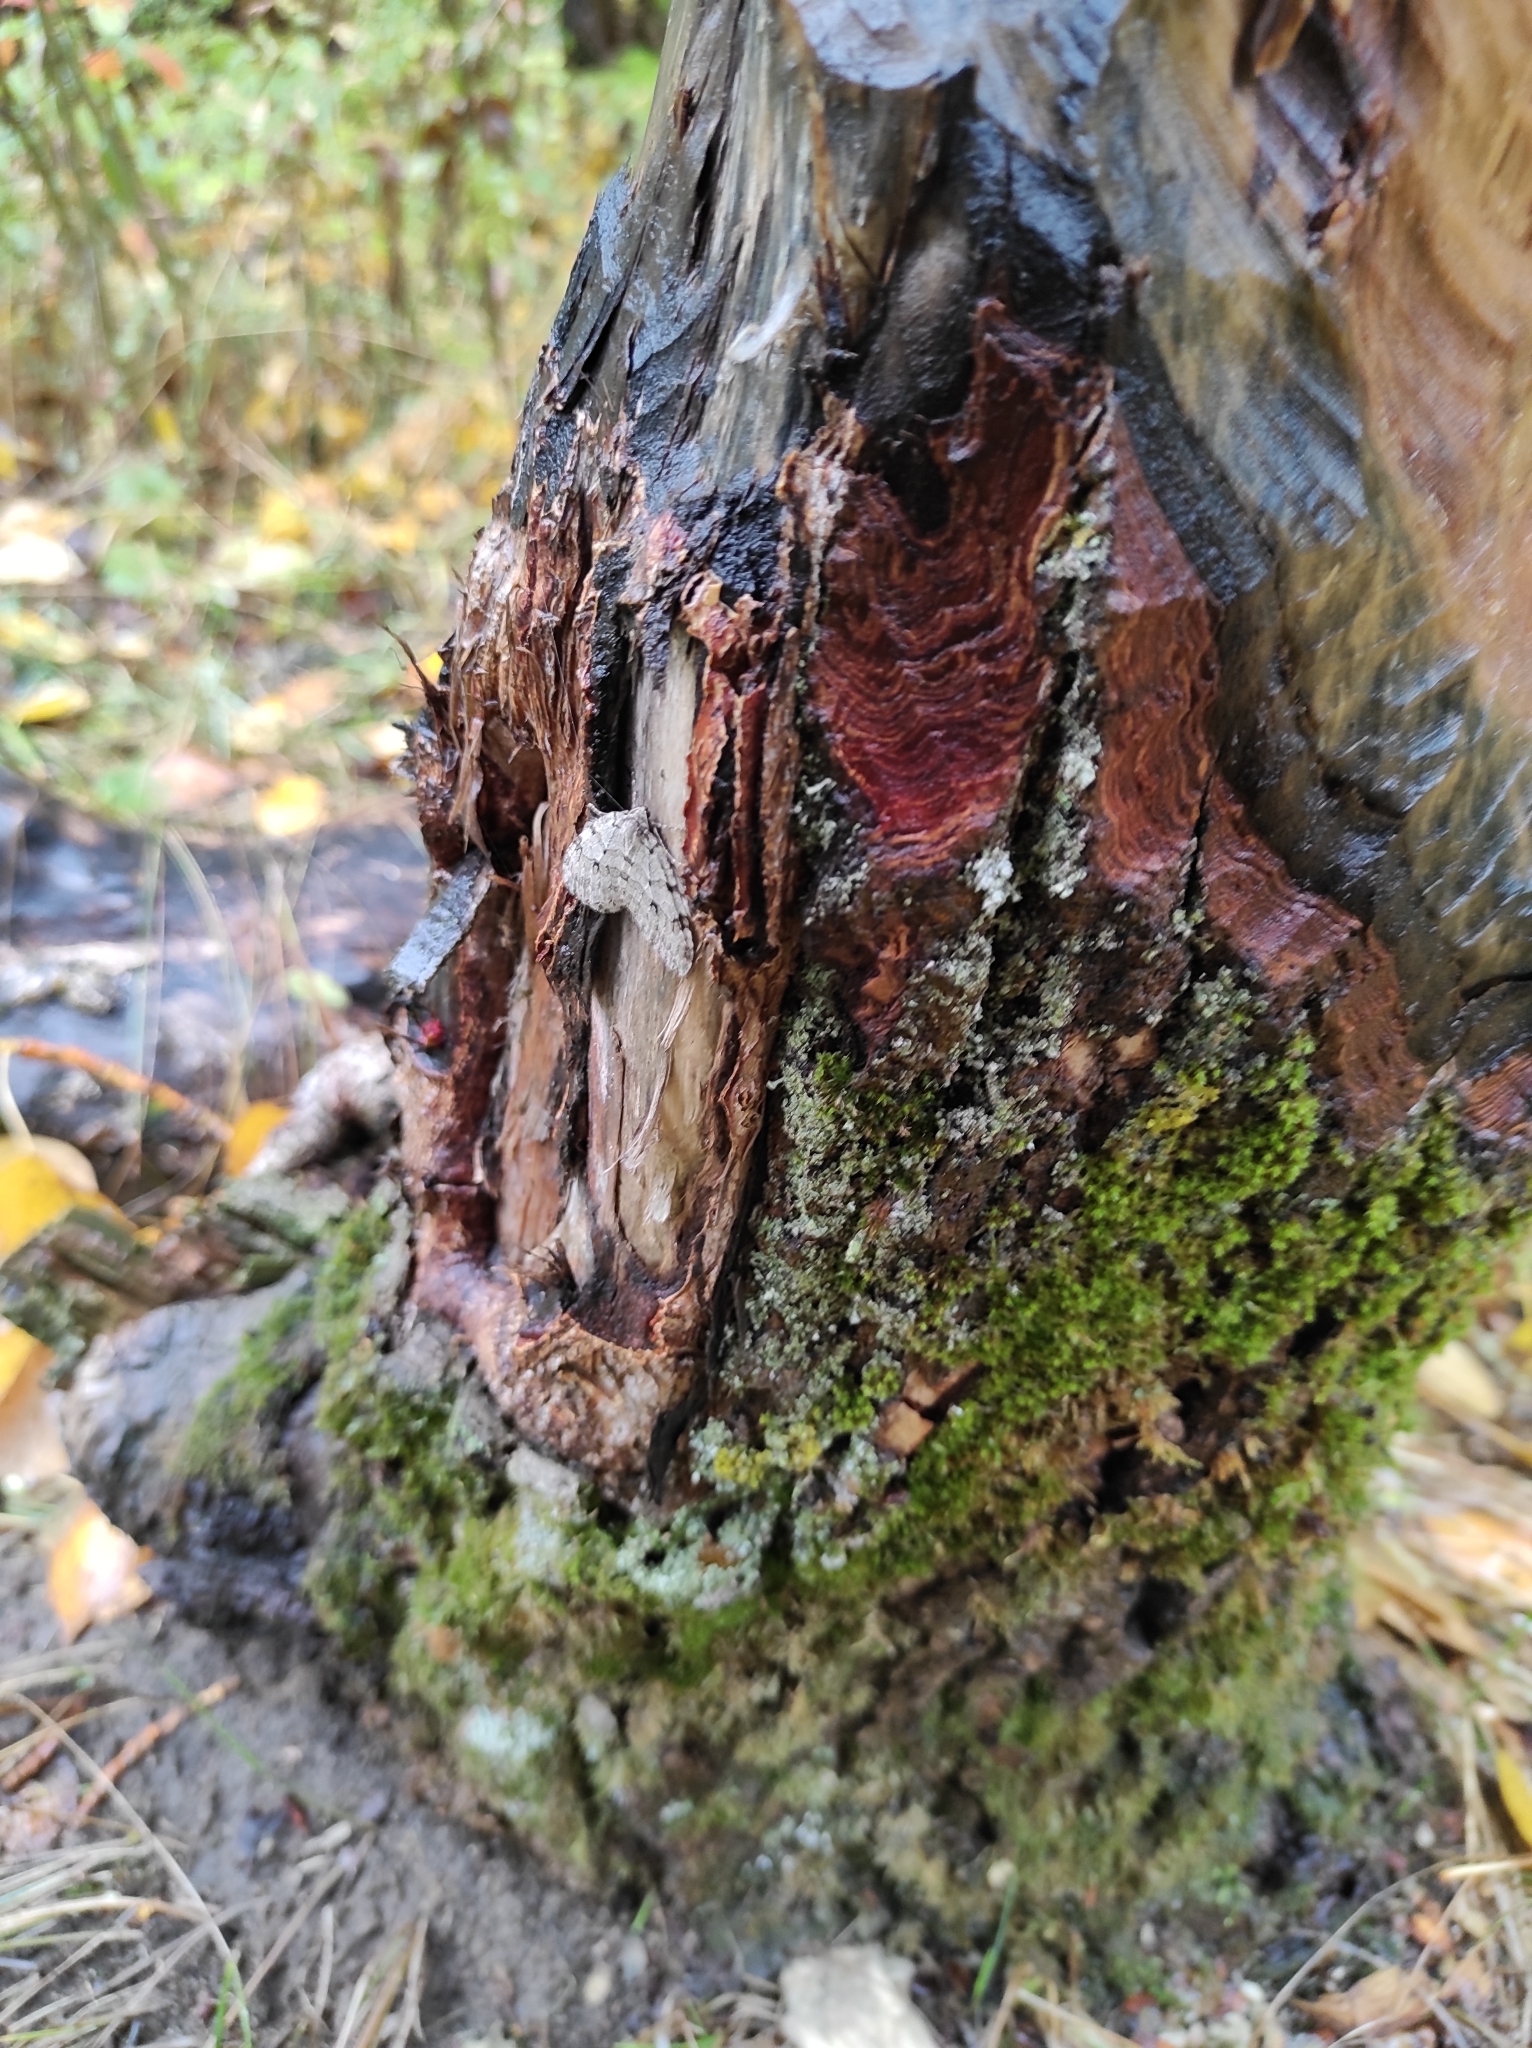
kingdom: Animalia
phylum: Arthropoda
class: Insecta
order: Lepidoptera
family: Geometridae
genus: Epirrita
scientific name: Epirrita autumnata
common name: Autumnal moth
